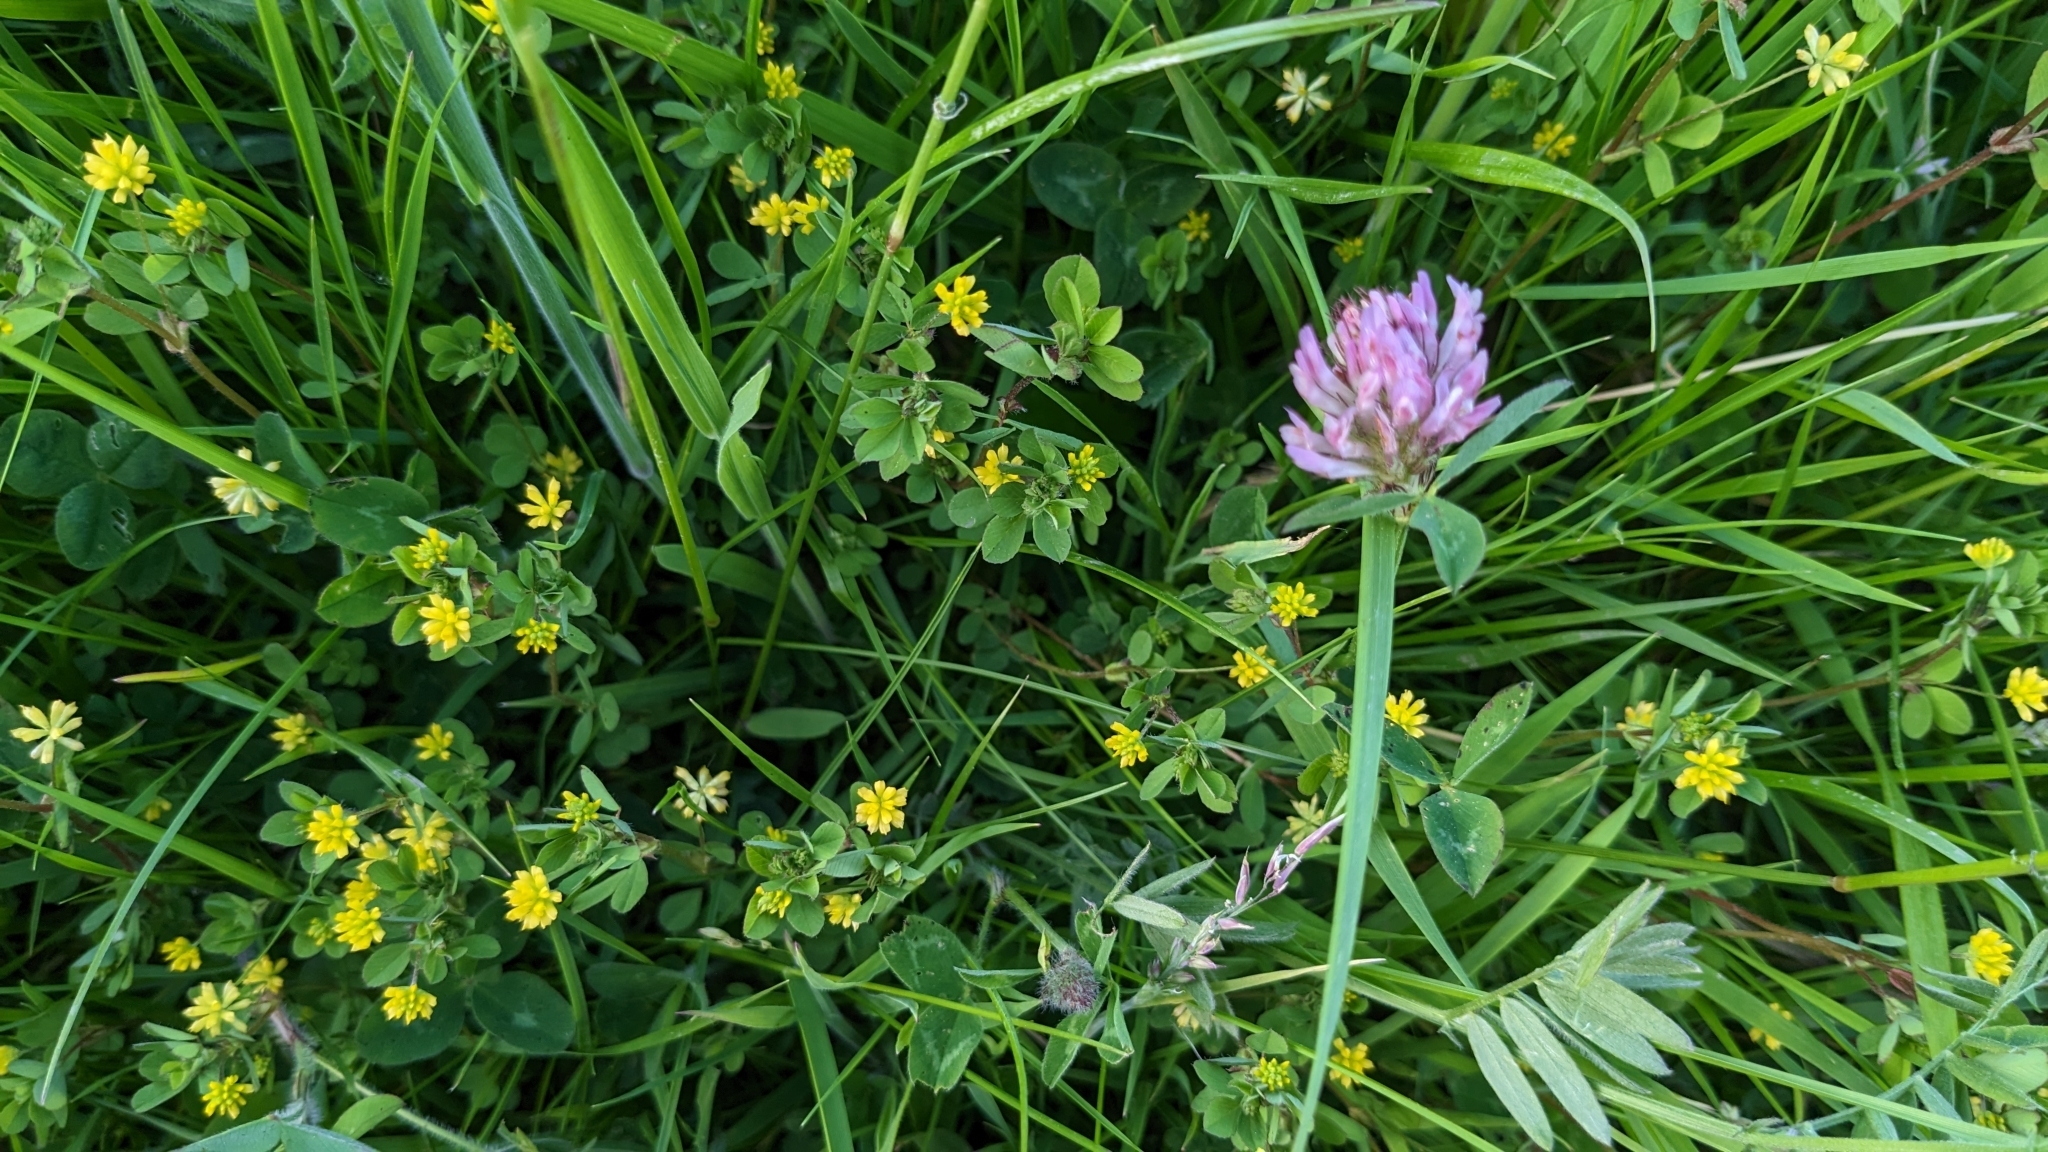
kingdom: Plantae
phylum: Tracheophyta
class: Magnoliopsida
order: Fabales
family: Fabaceae
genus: Trifolium
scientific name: Trifolium dubium
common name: Suckling clover
